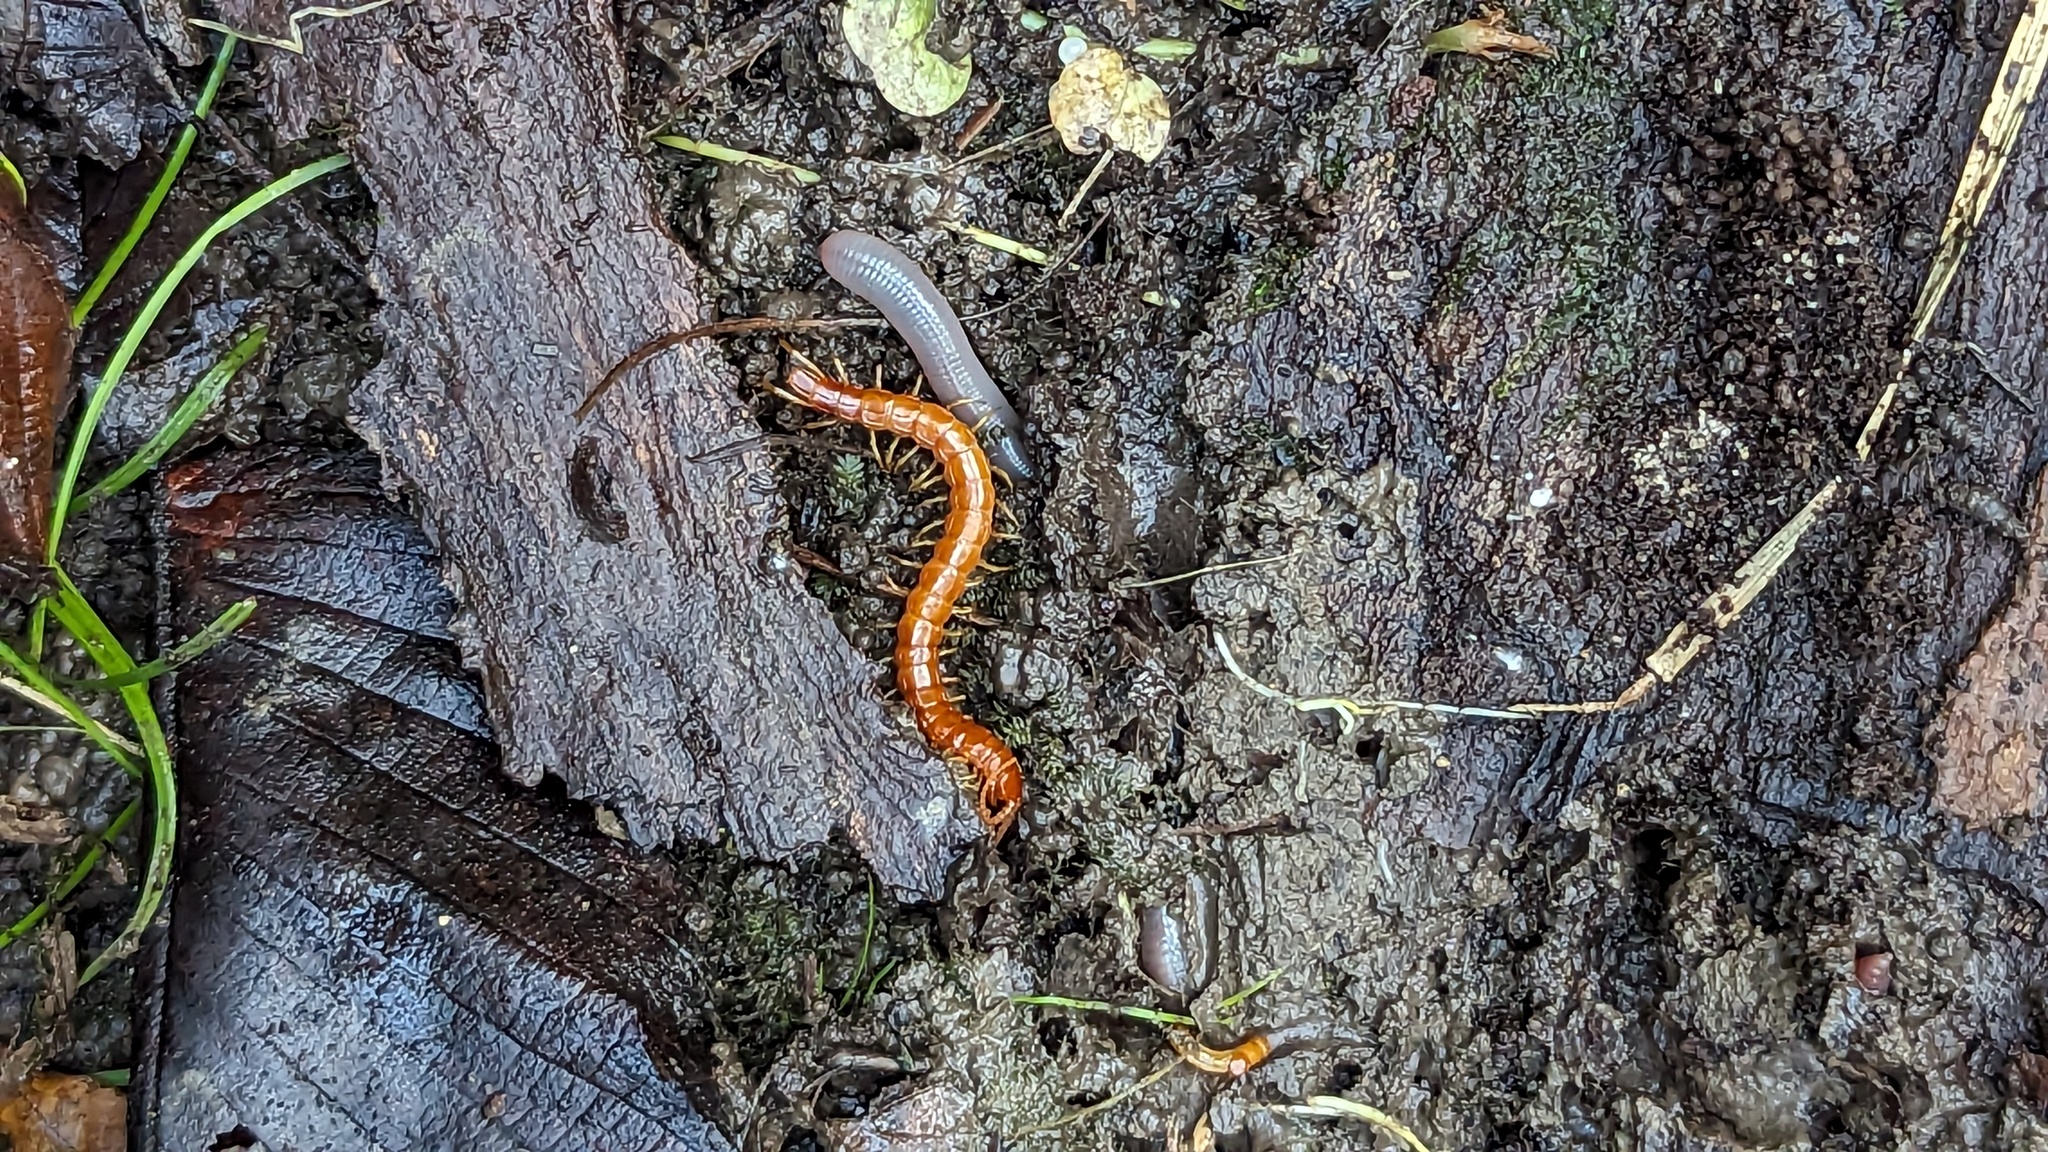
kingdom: Animalia
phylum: Arthropoda
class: Chilopoda
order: Scolopendromorpha
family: Scolopocryptopidae
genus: Scolopocryptops
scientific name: Scolopocryptops sexspinosus
